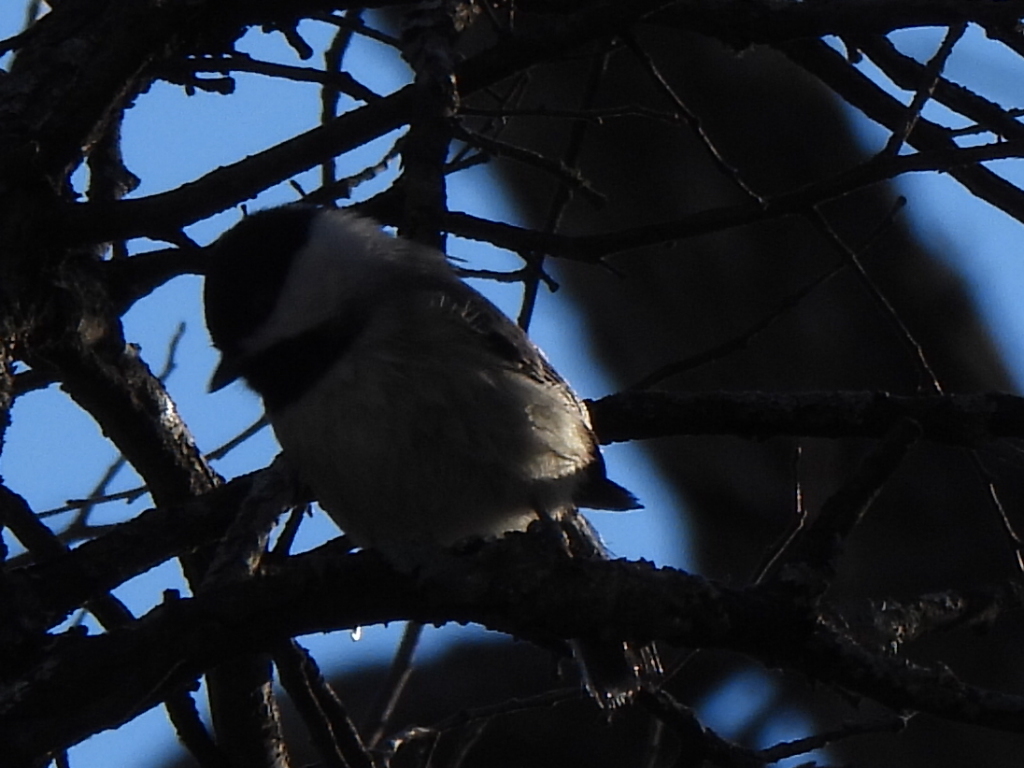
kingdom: Animalia
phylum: Chordata
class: Aves
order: Passeriformes
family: Paridae
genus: Poecile
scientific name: Poecile carolinensis
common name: Carolina chickadee
